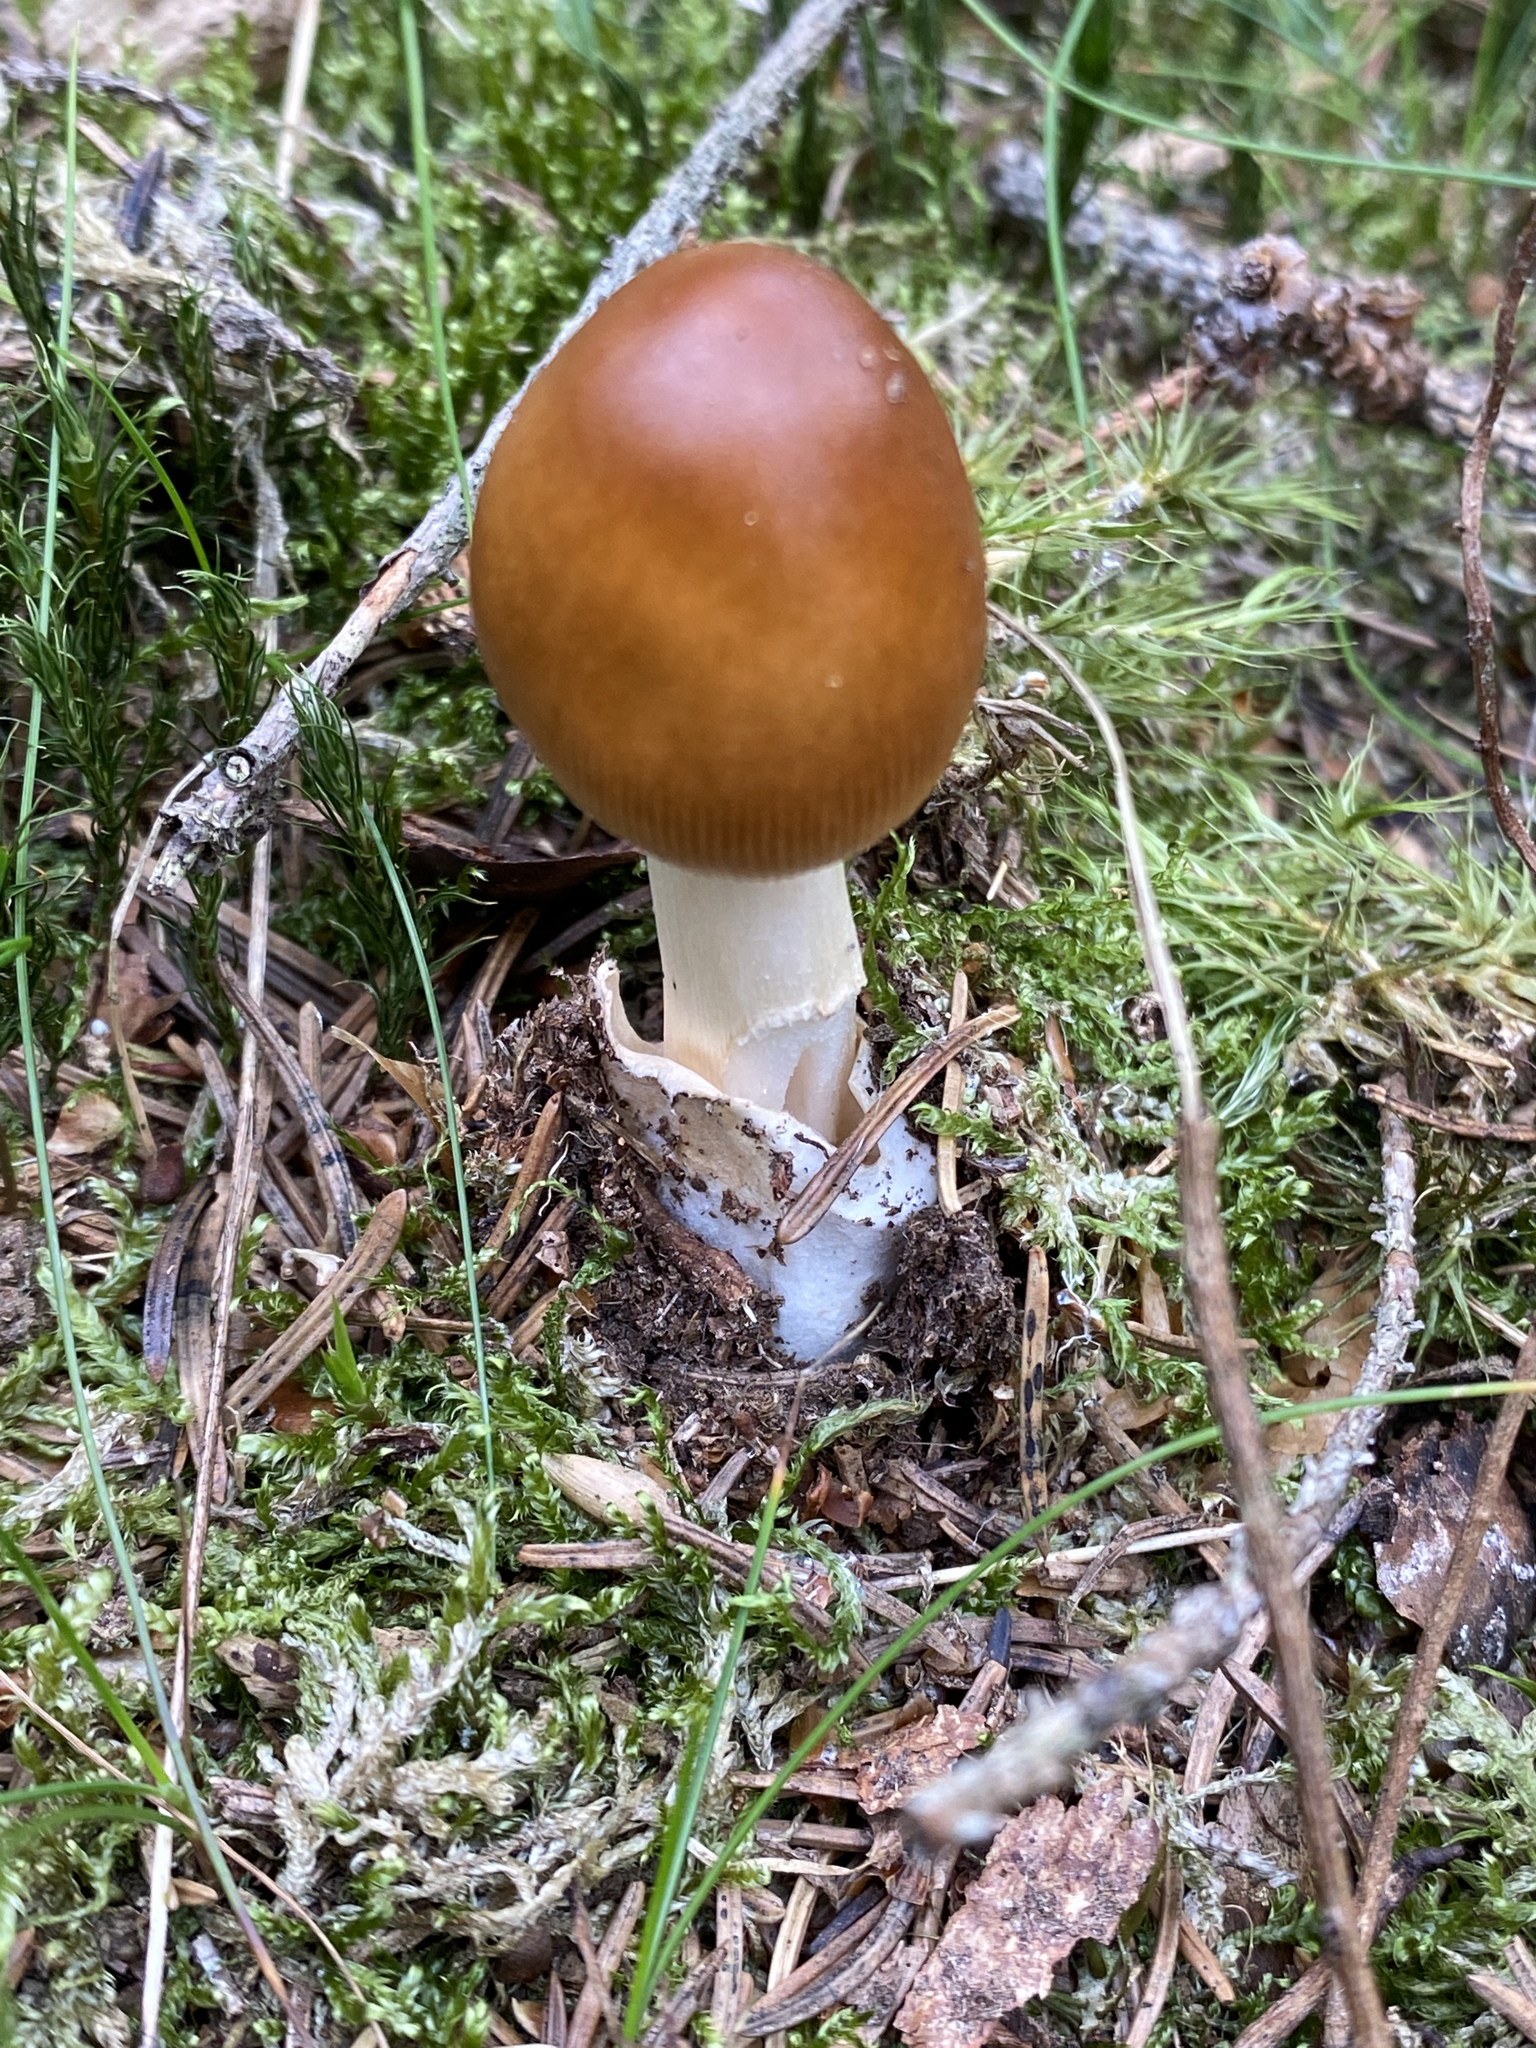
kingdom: Fungi
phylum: Basidiomycota
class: Agaricomycetes
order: Agaricales
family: Amanitaceae
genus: Amanita
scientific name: Amanita fulva
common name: Tawny grisette
